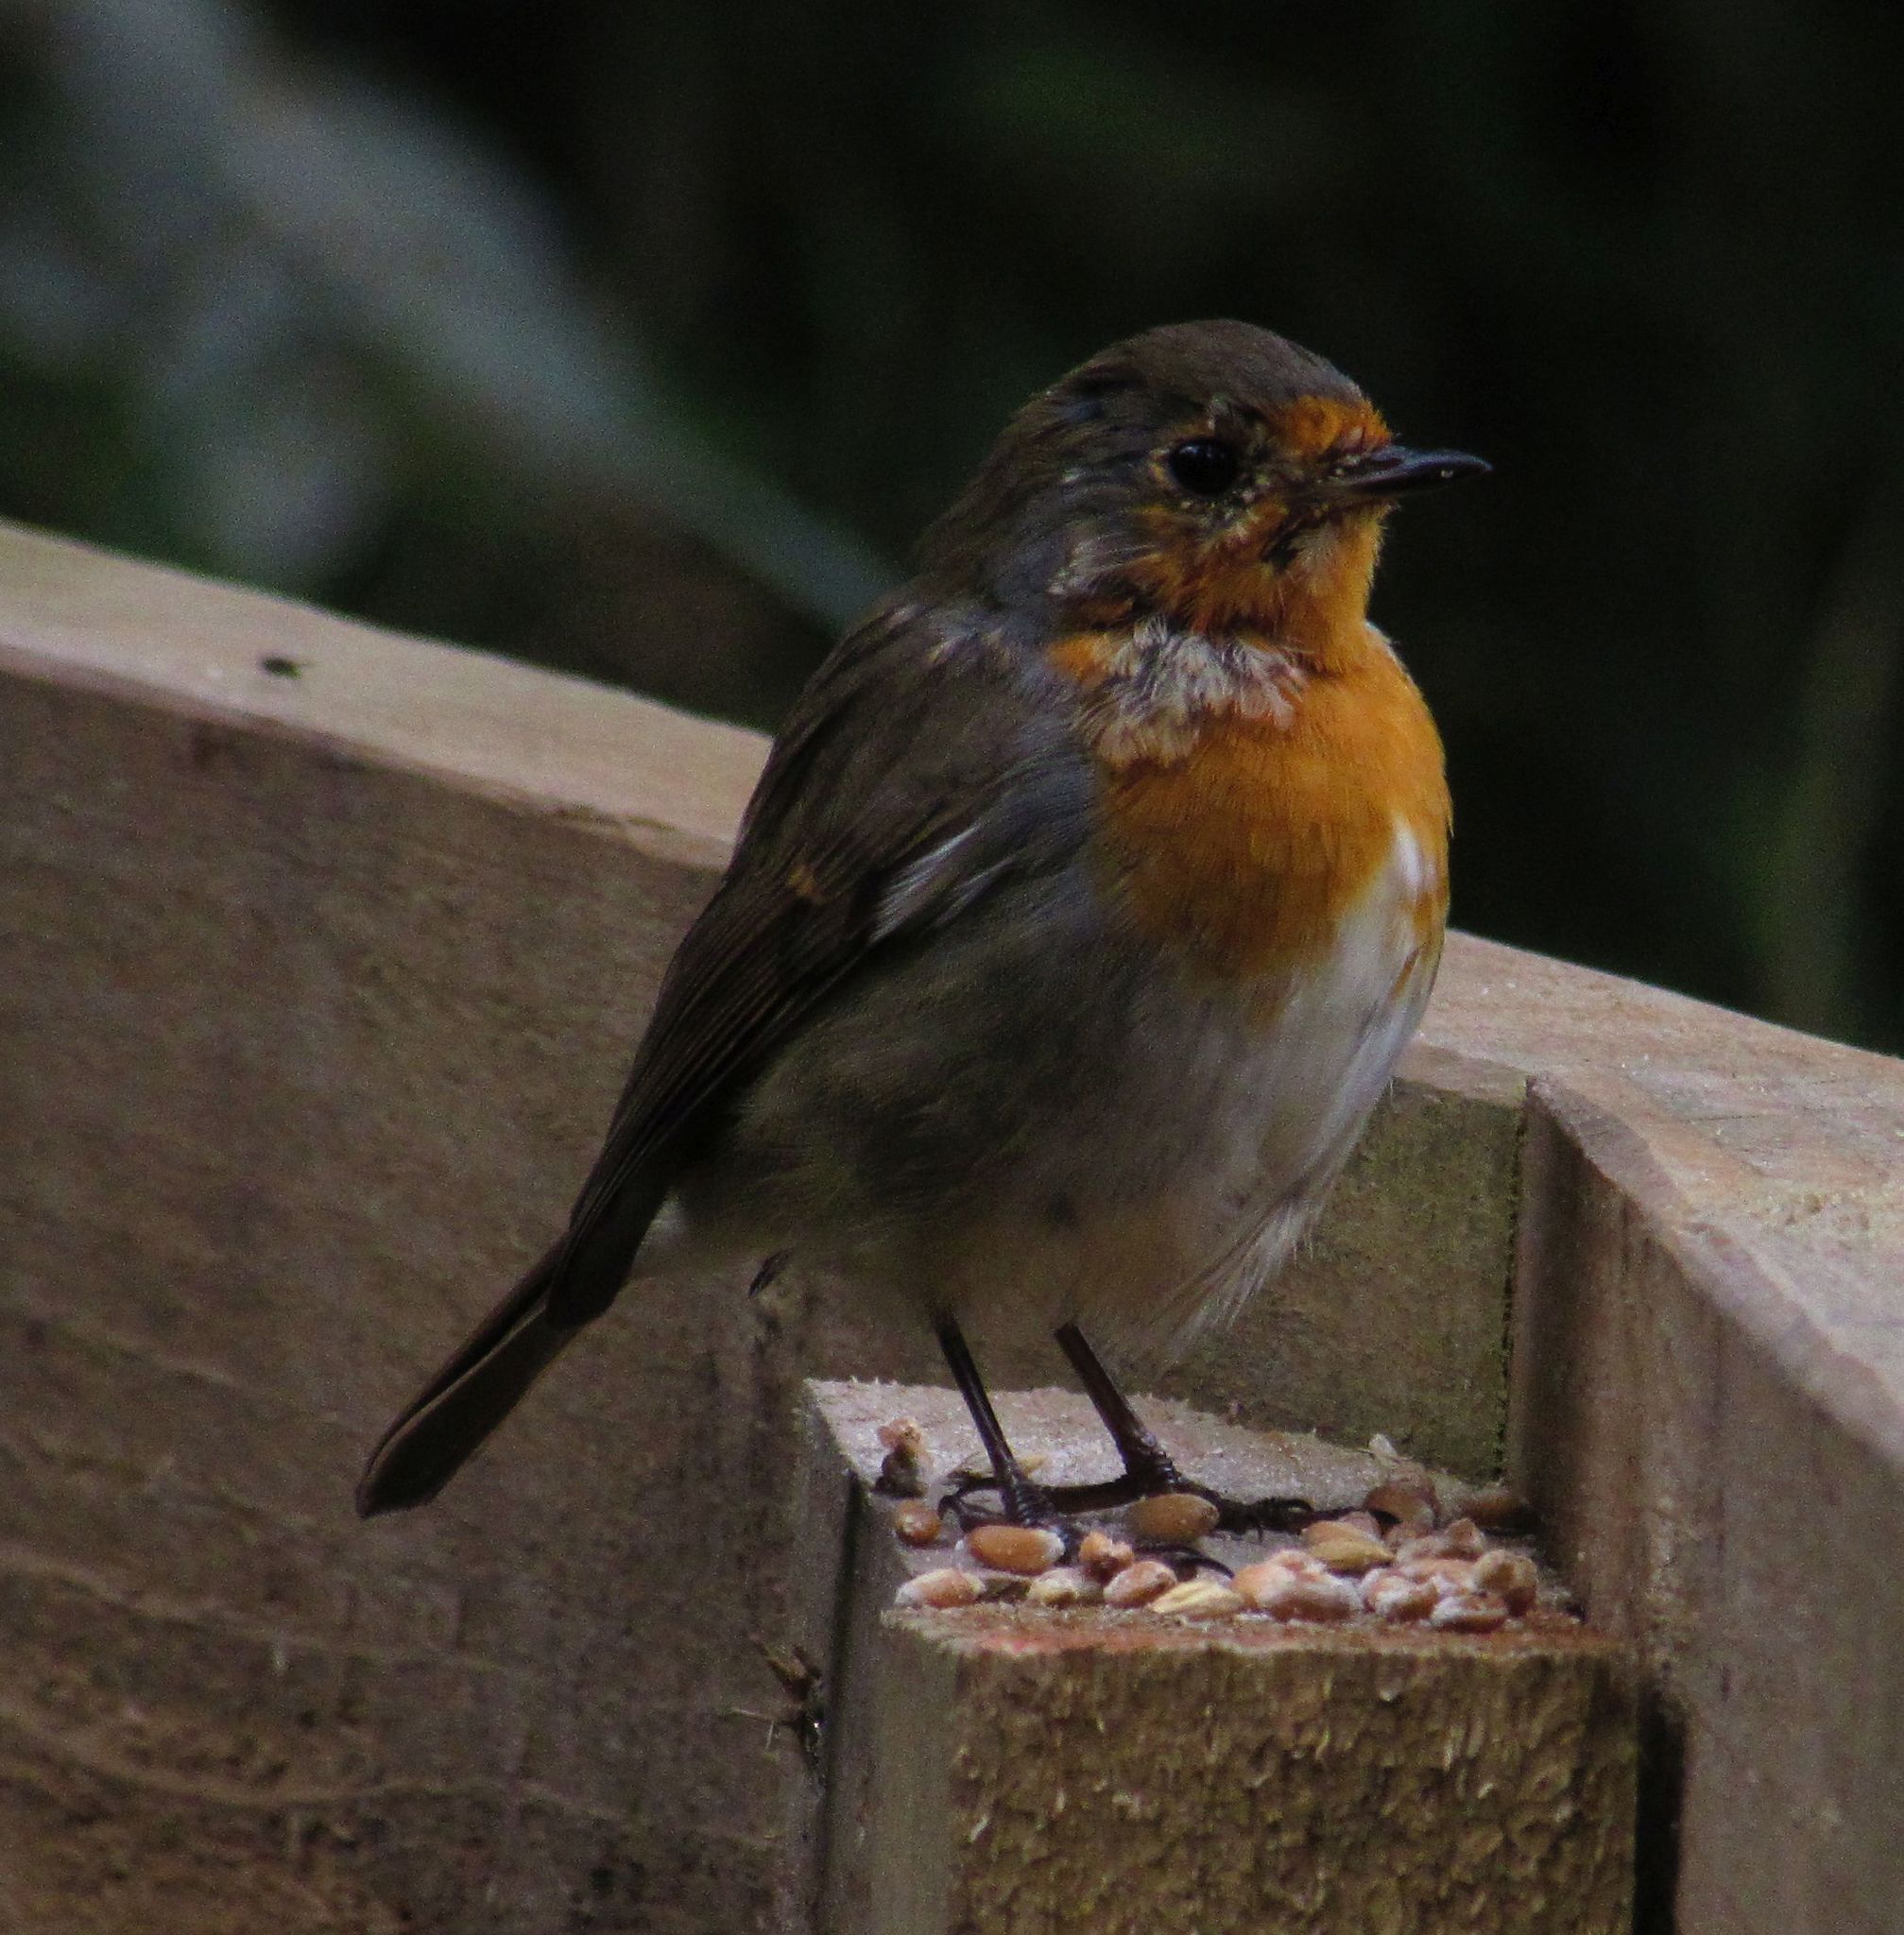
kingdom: Animalia
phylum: Chordata
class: Aves
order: Passeriformes
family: Muscicapidae
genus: Erithacus
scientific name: Erithacus rubecula
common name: European robin
